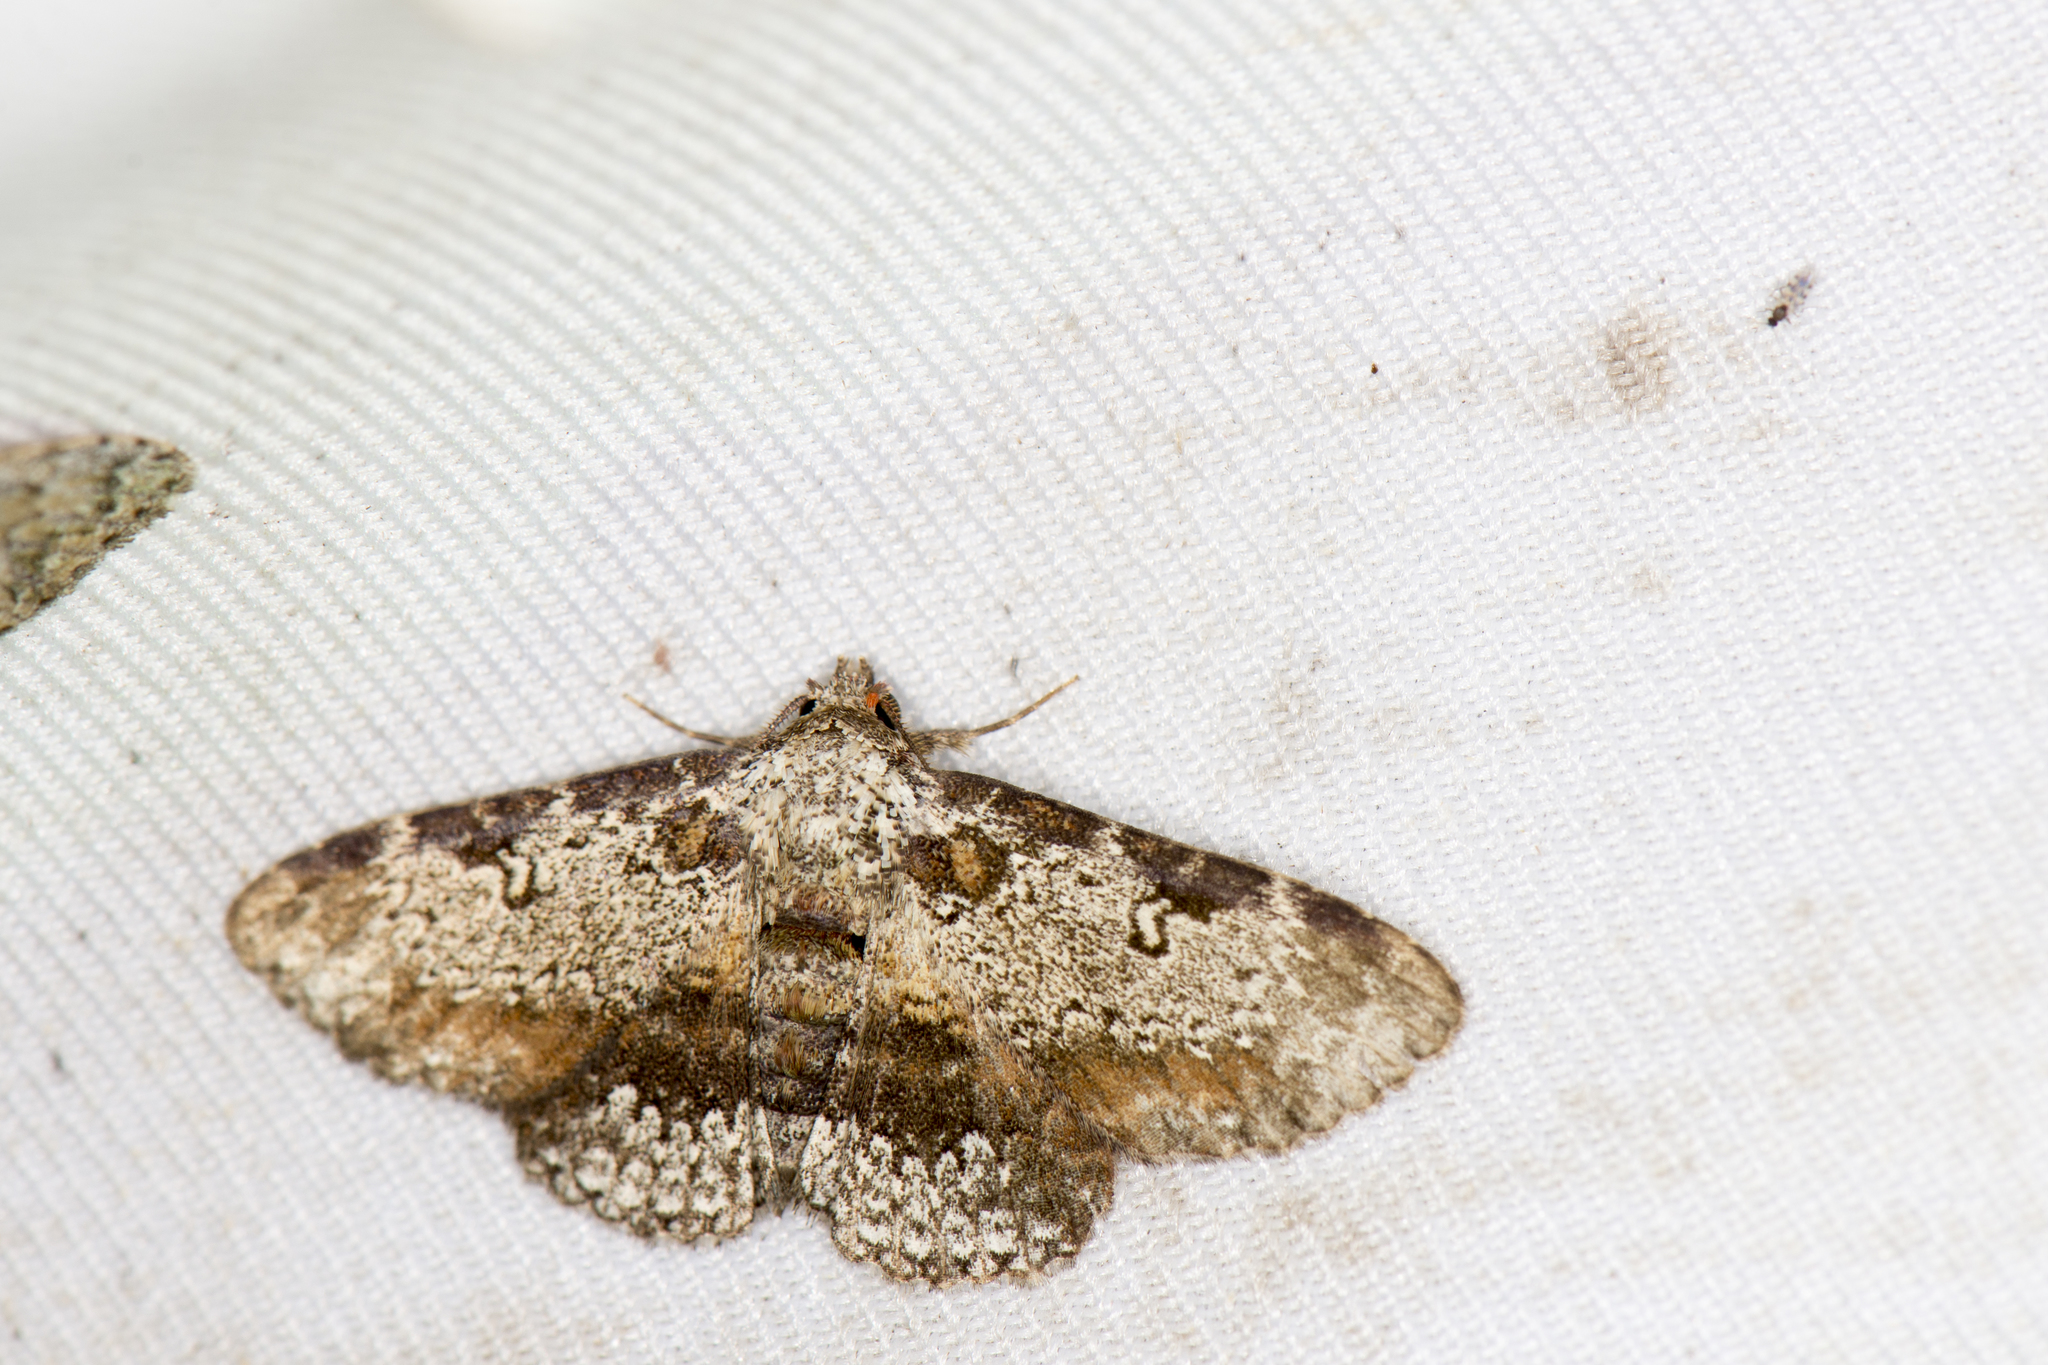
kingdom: Animalia
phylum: Arthropoda
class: Insecta
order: Lepidoptera
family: Erebidae
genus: Caduca
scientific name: Caduca albopunctata
